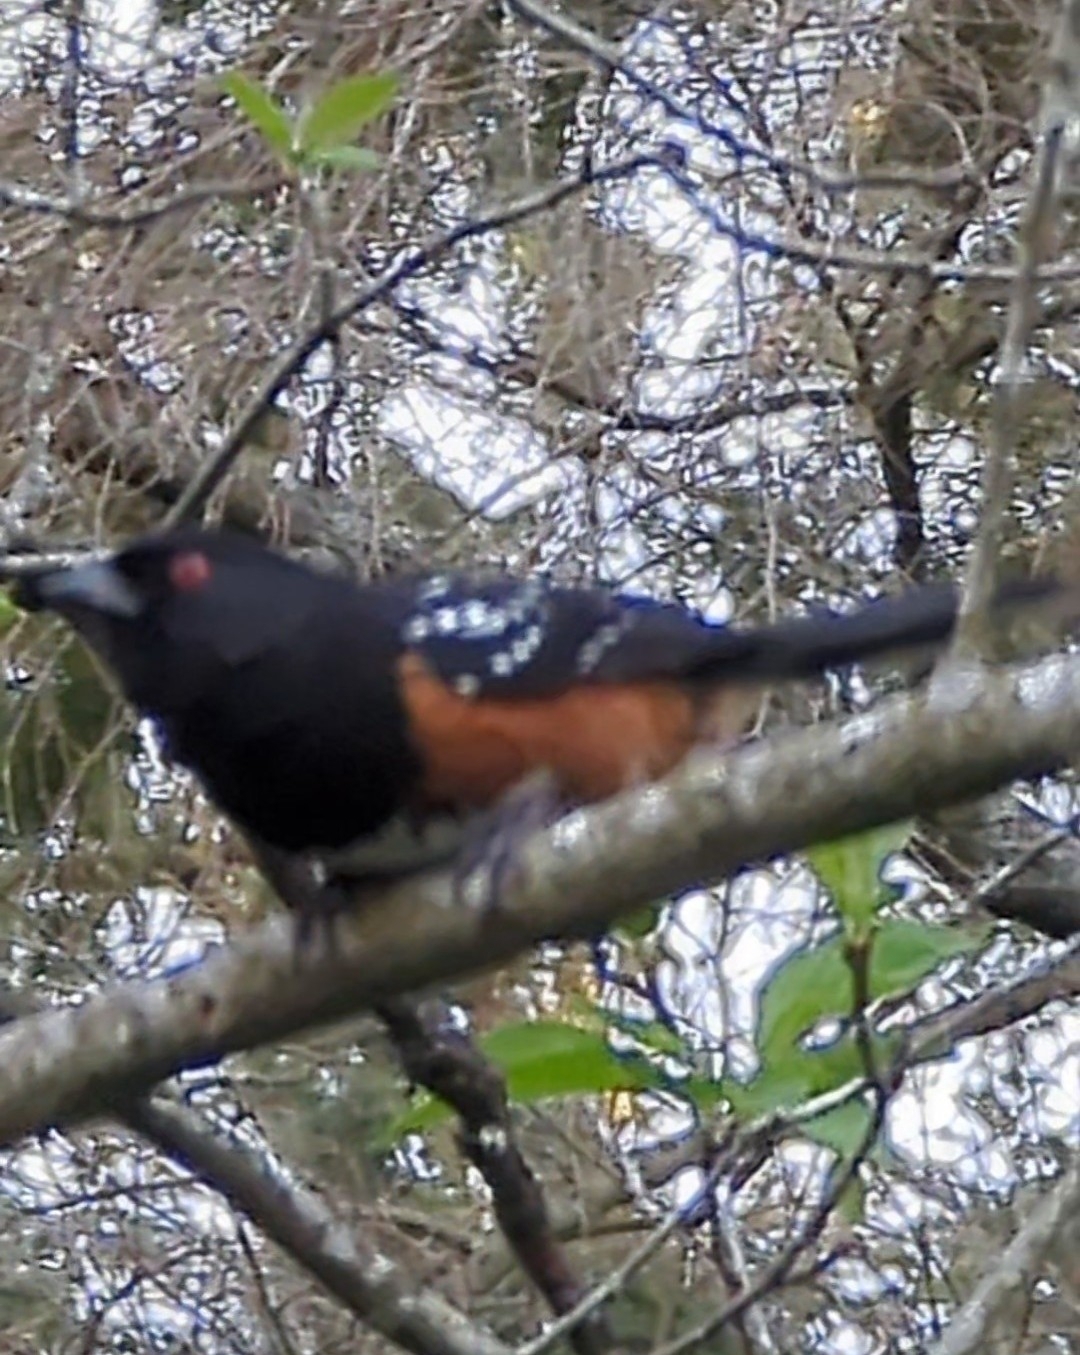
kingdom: Animalia
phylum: Chordata
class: Aves
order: Passeriformes
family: Passerellidae
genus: Pipilo
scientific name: Pipilo maculatus
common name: Spotted towhee
